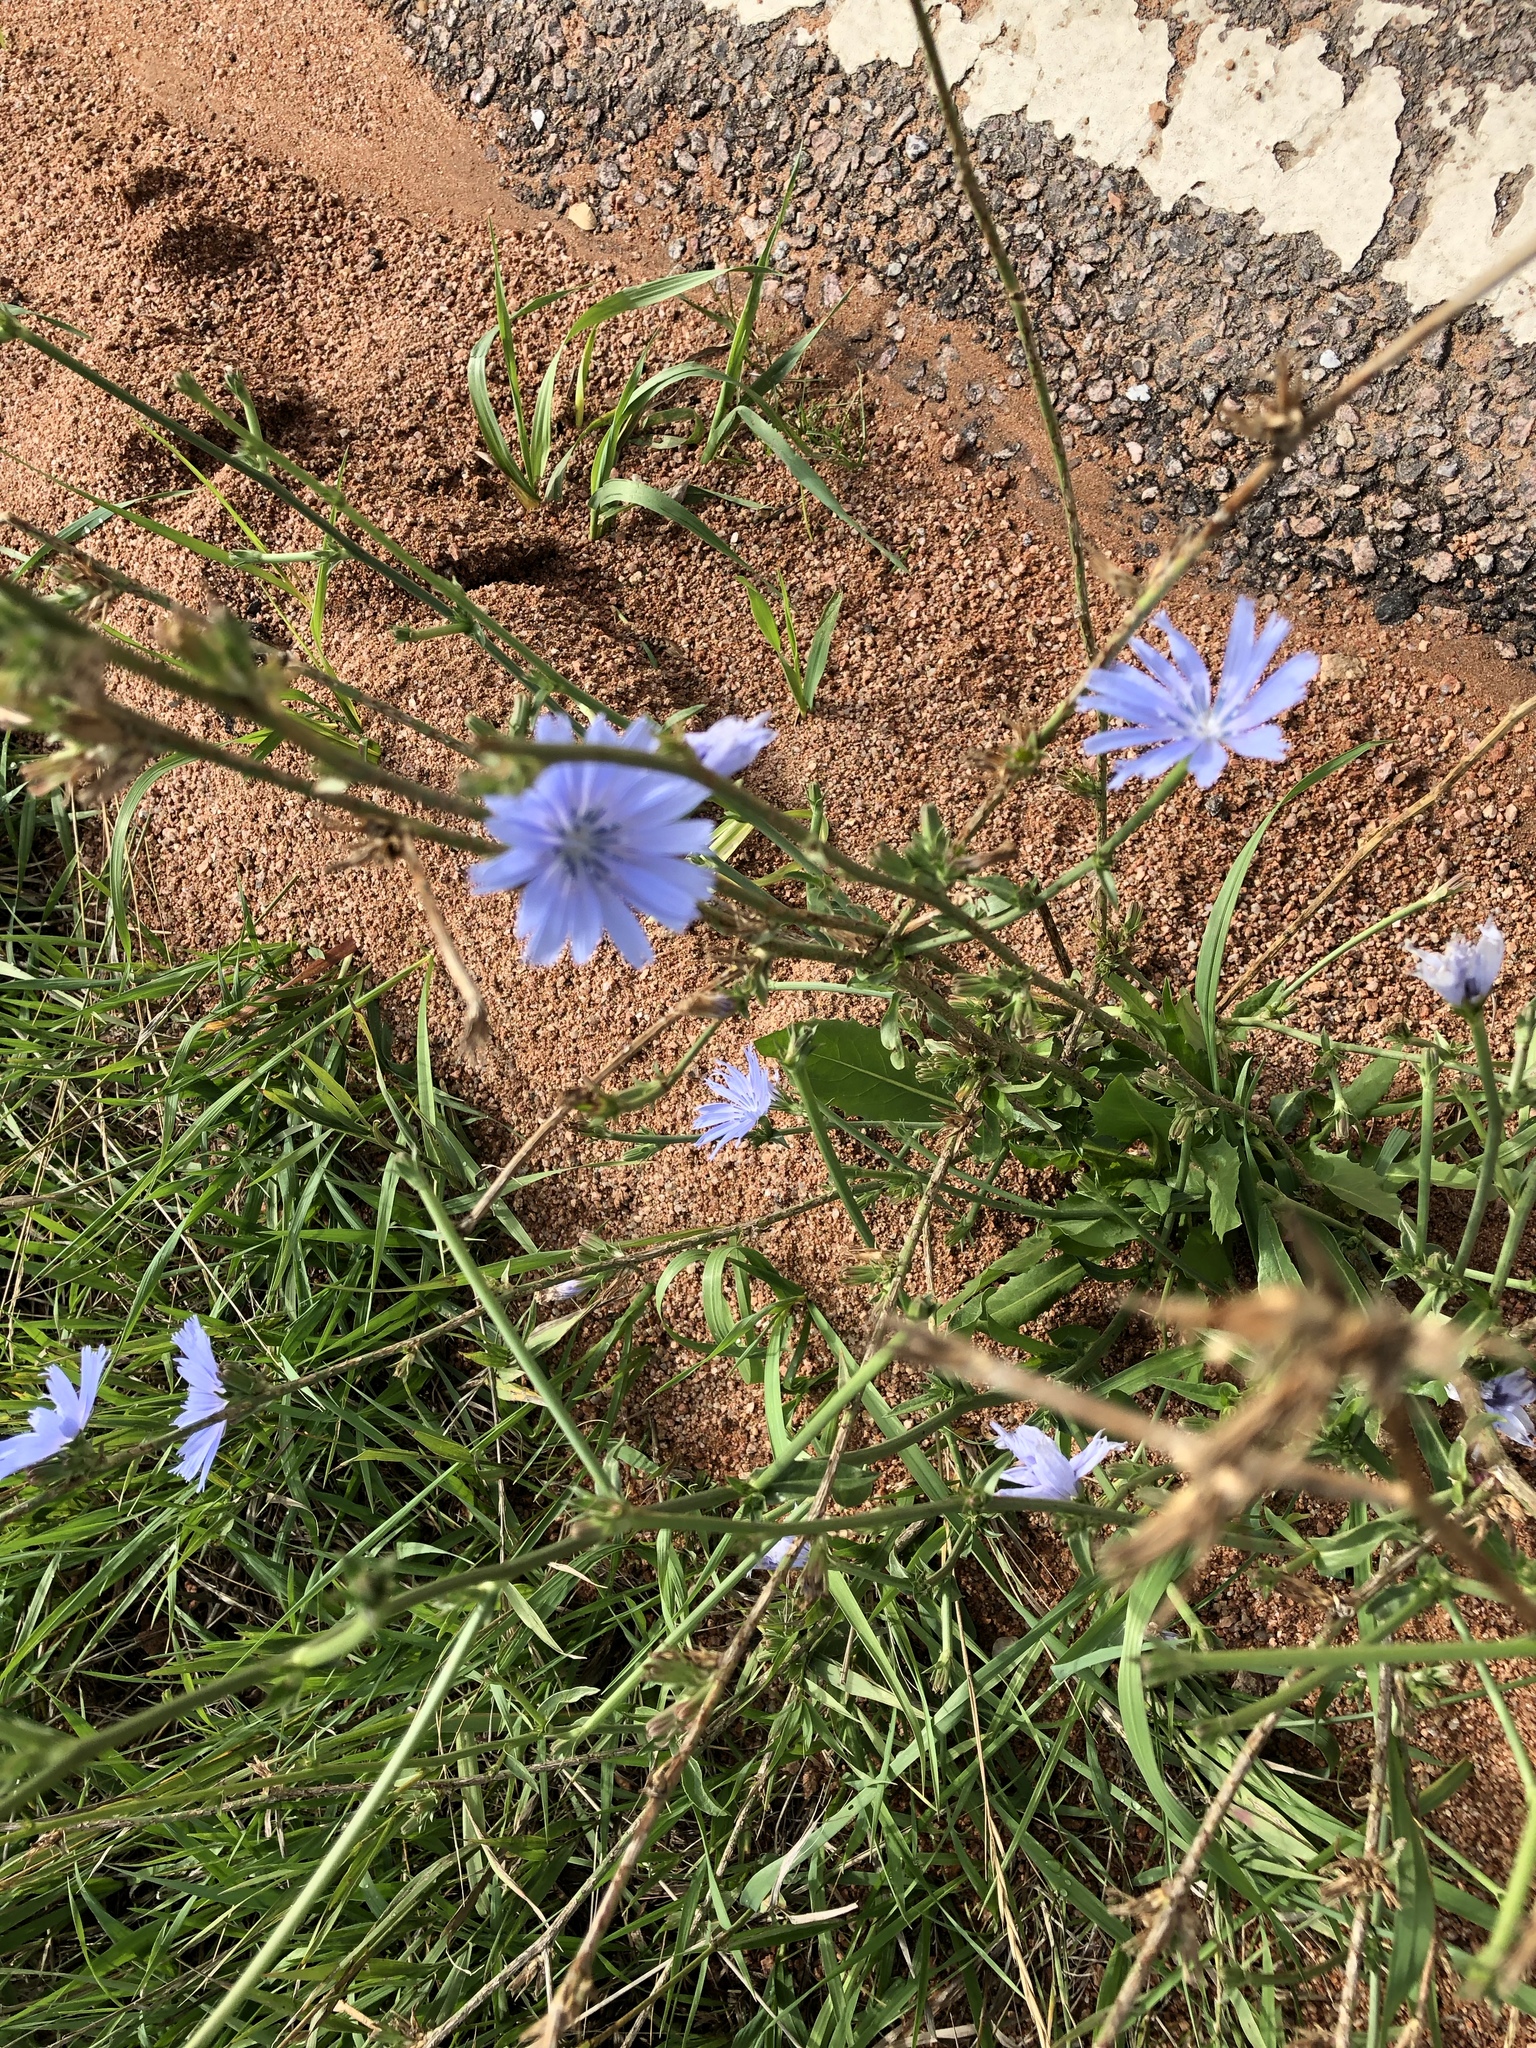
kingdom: Plantae
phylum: Tracheophyta
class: Magnoliopsida
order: Asterales
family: Asteraceae
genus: Cichorium
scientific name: Cichorium intybus
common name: Chicory
